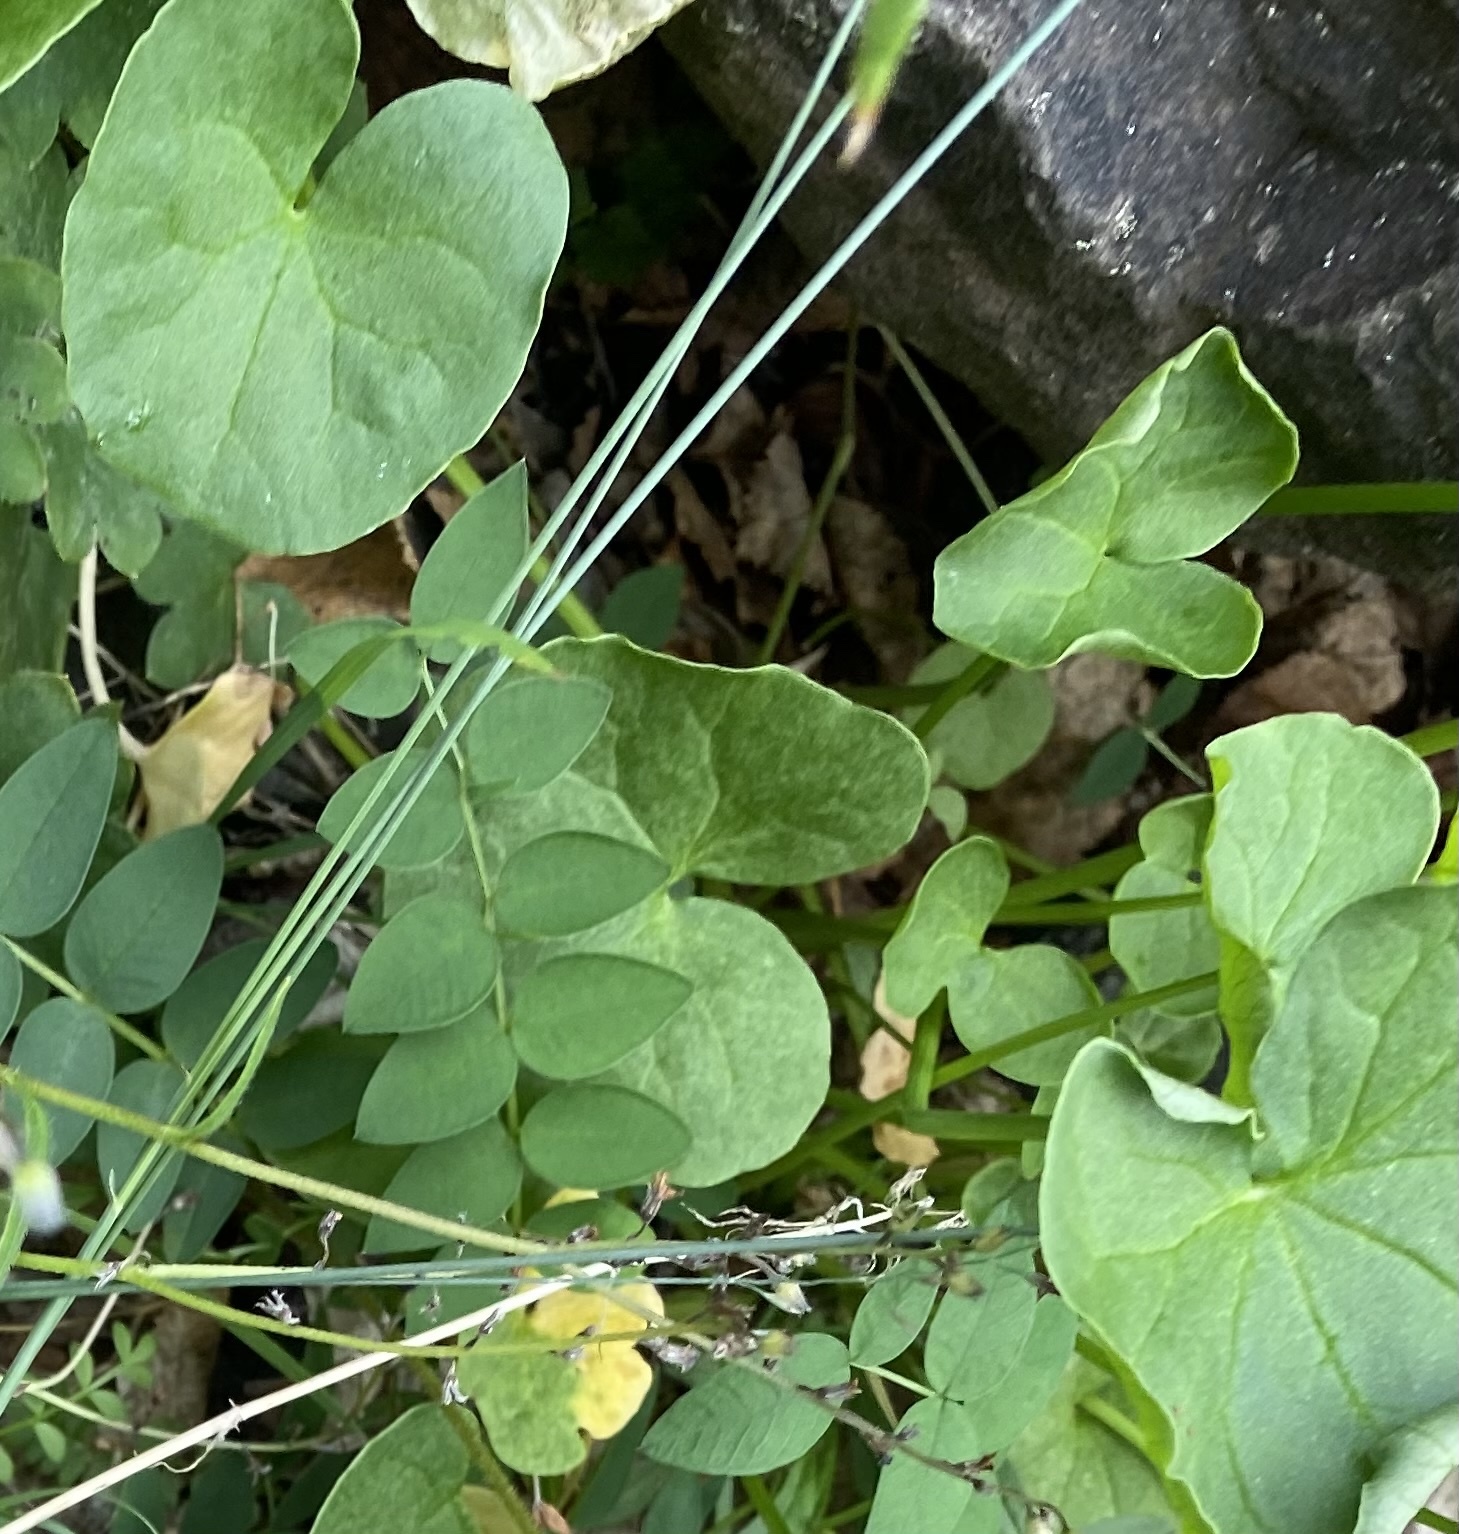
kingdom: Plantae
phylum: Tracheophyta
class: Magnoliopsida
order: Caryophyllales
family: Polygonaceae
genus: Oxyria
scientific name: Oxyria digyna
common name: Alpine mountain-sorrel
